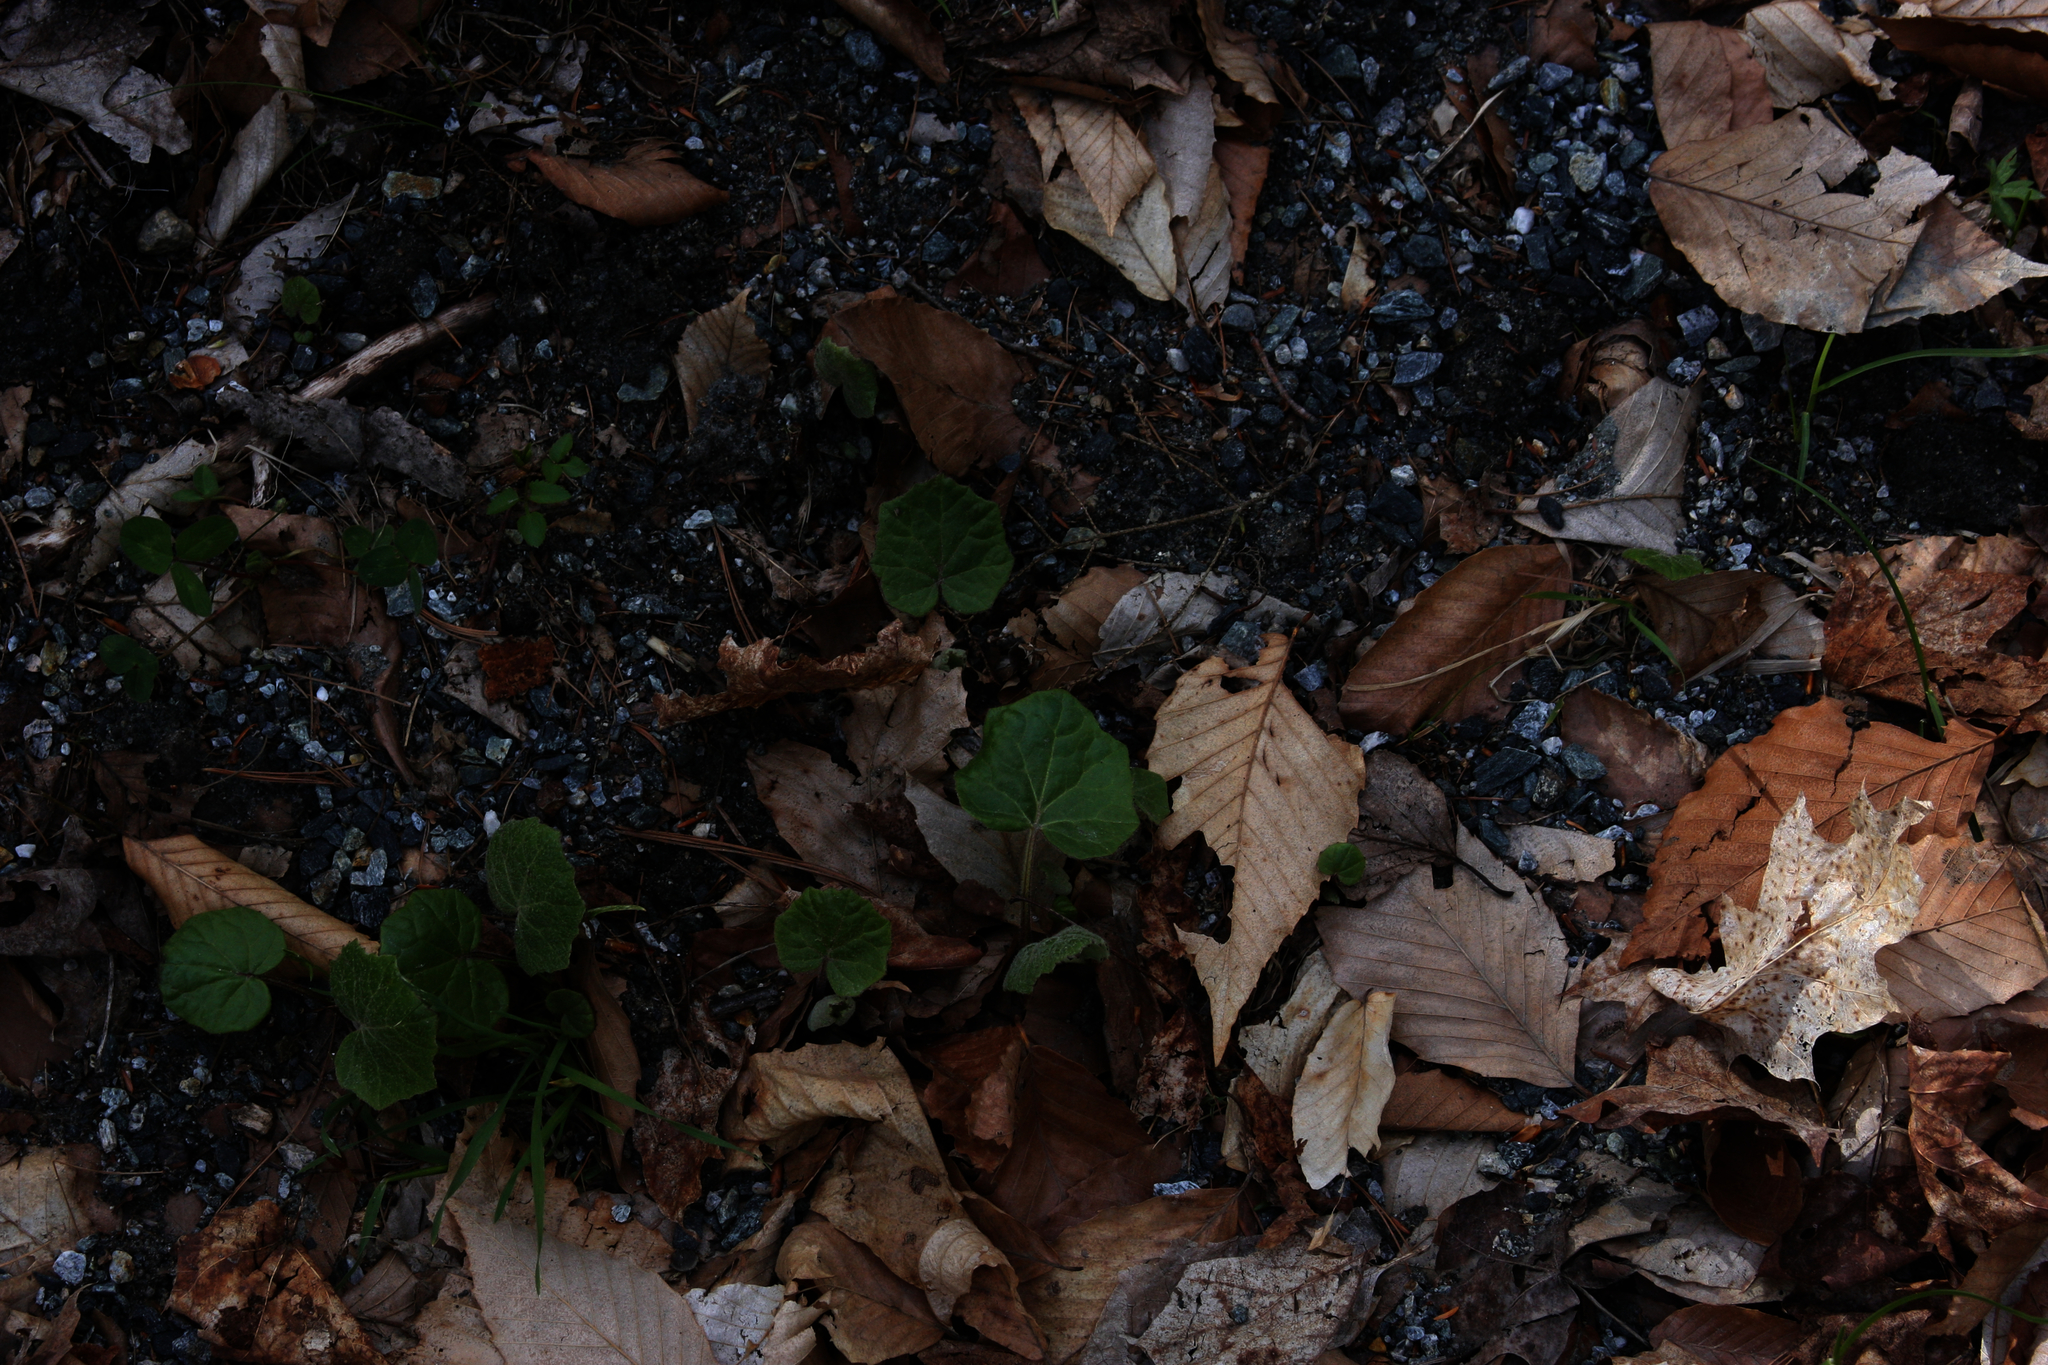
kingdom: Plantae
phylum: Tracheophyta
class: Magnoliopsida
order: Asterales
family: Asteraceae
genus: Tussilago
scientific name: Tussilago farfara
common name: Coltsfoot
